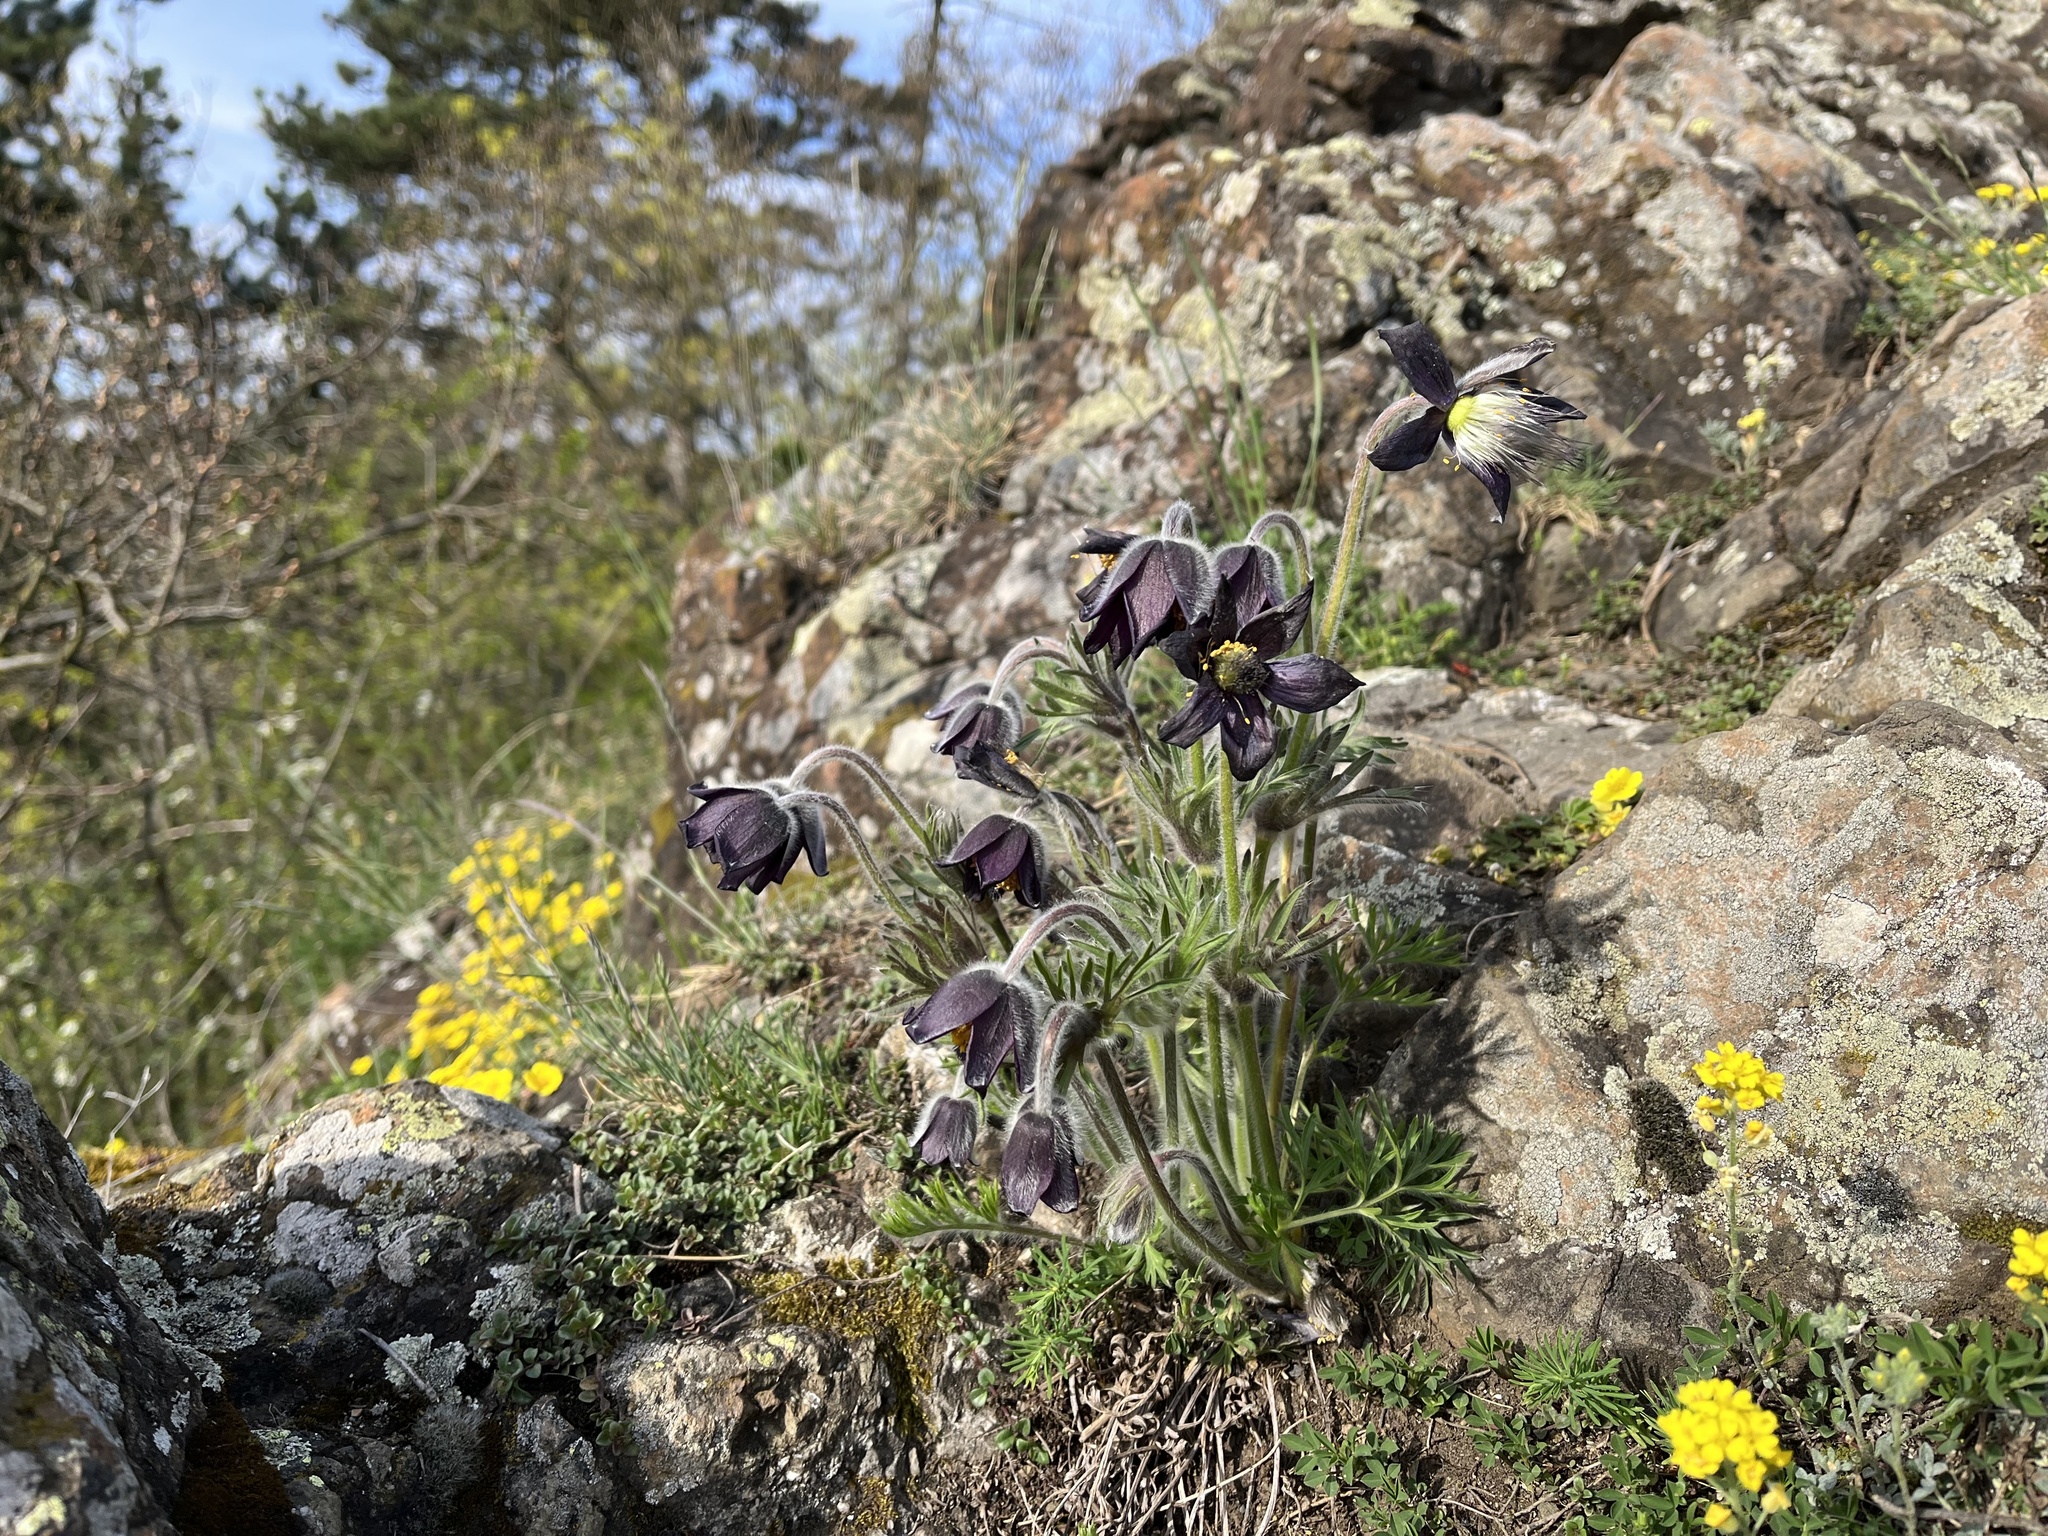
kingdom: Plantae
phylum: Tracheophyta
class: Magnoliopsida
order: Ranunculales
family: Ranunculaceae
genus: Pulsatilla
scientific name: Pulsatilla pratensis
